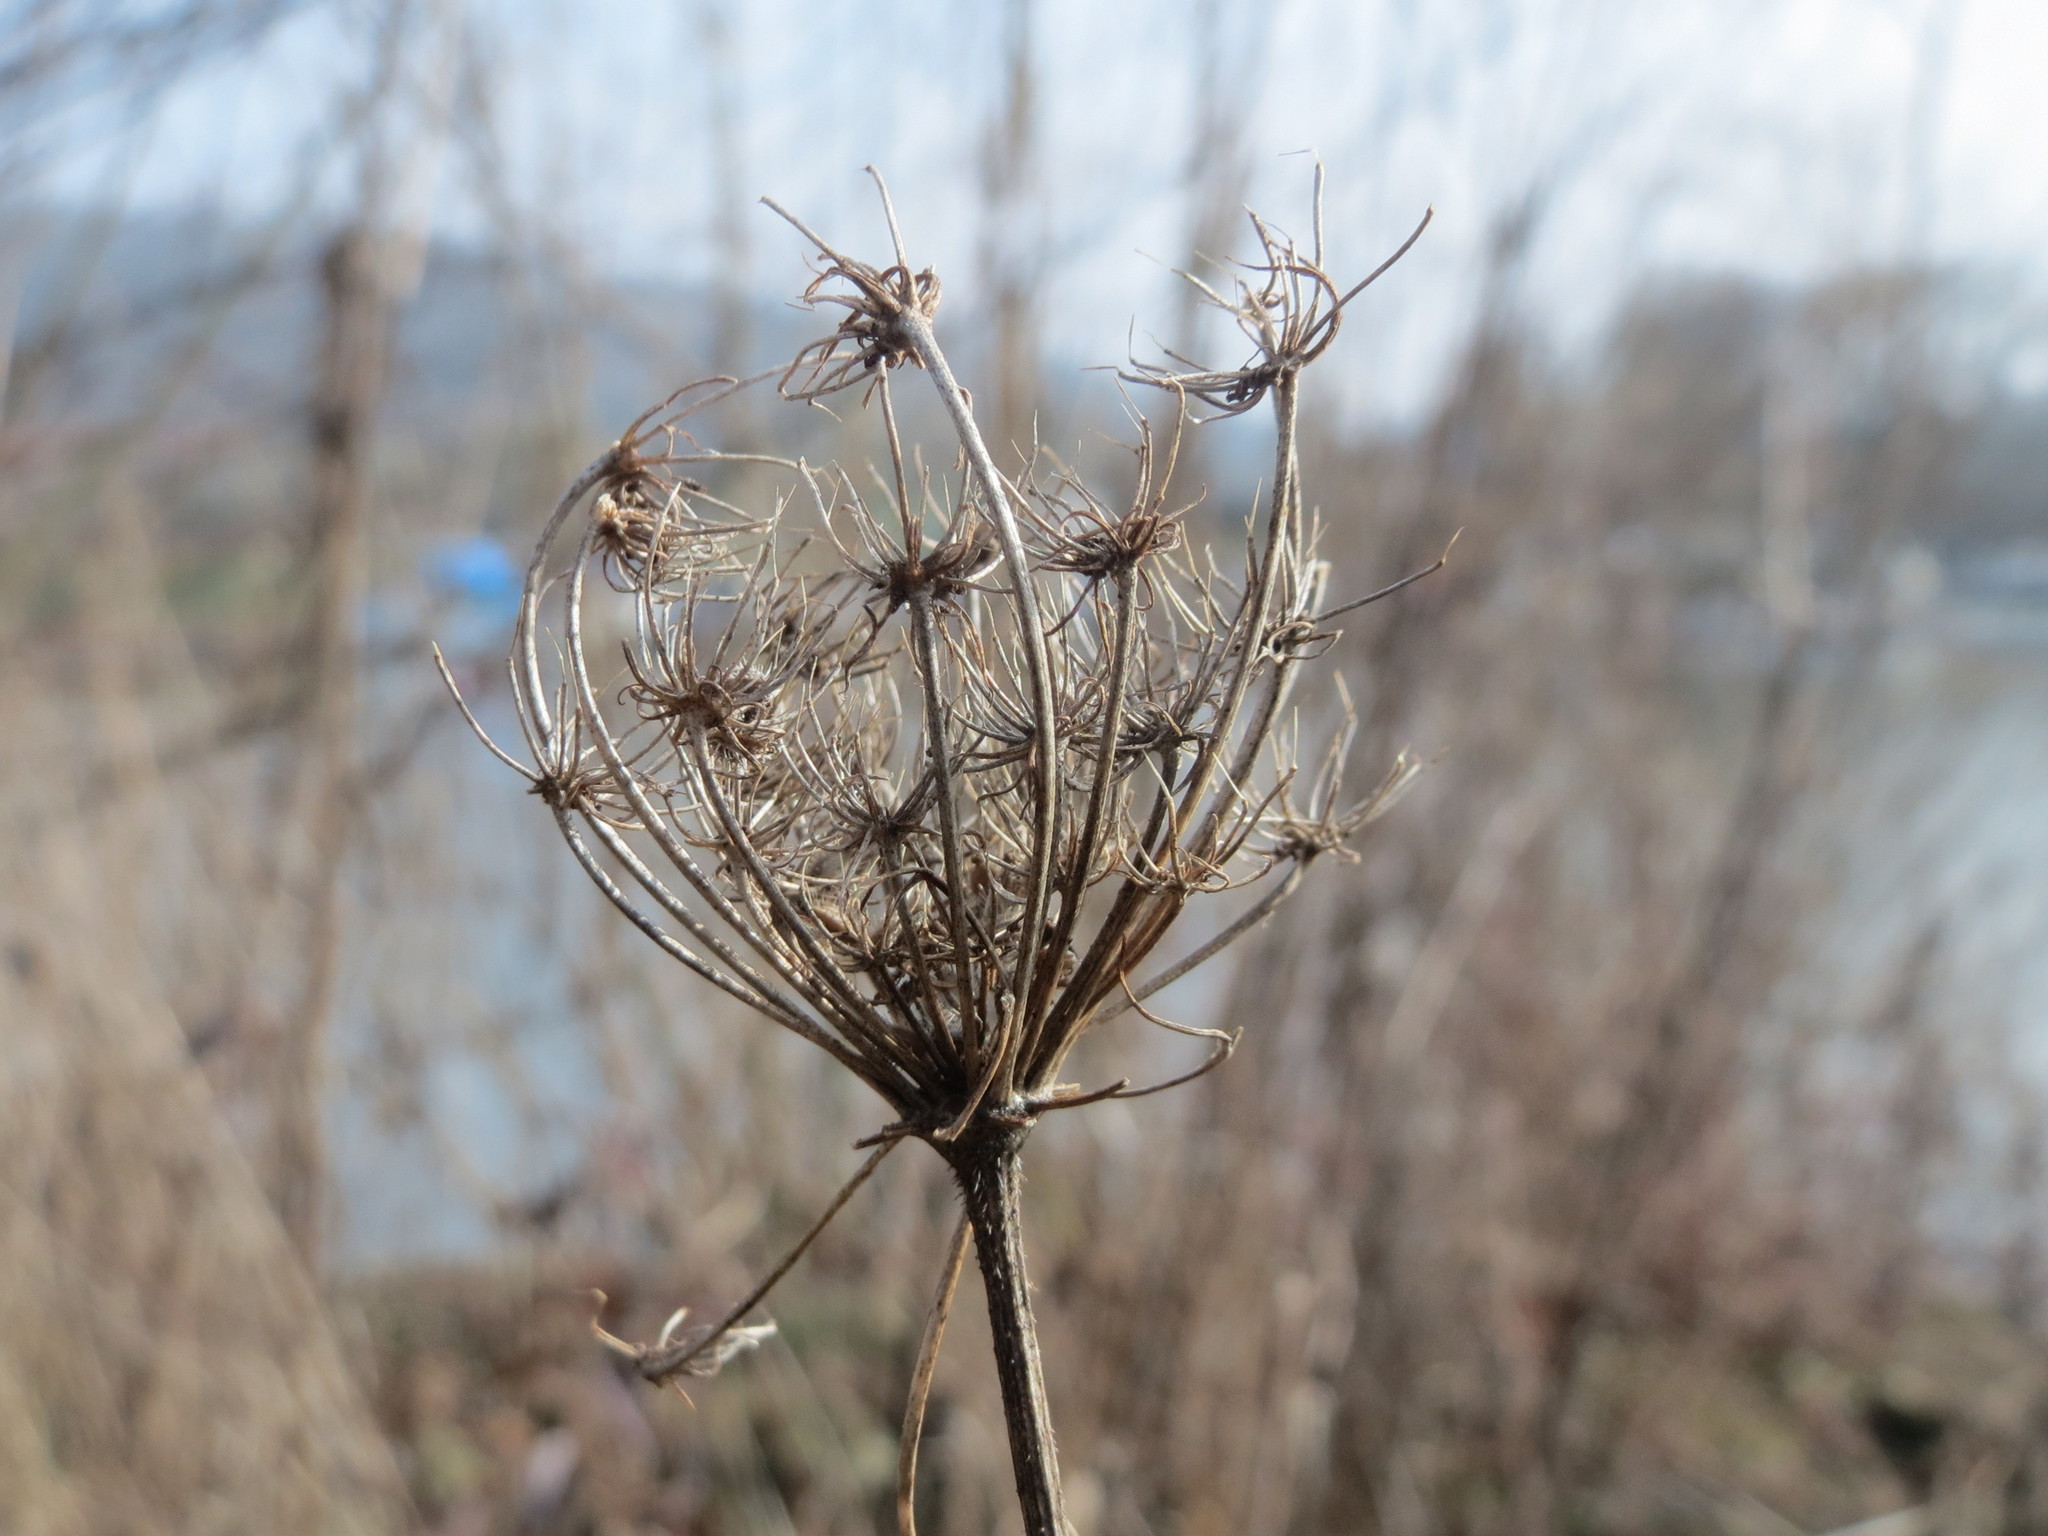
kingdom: Plantae
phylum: Tracheophyta
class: Magnoliopsida
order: Apiales
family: Apiaceae
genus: Daucus
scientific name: Daucus carota
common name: Wild carrot
